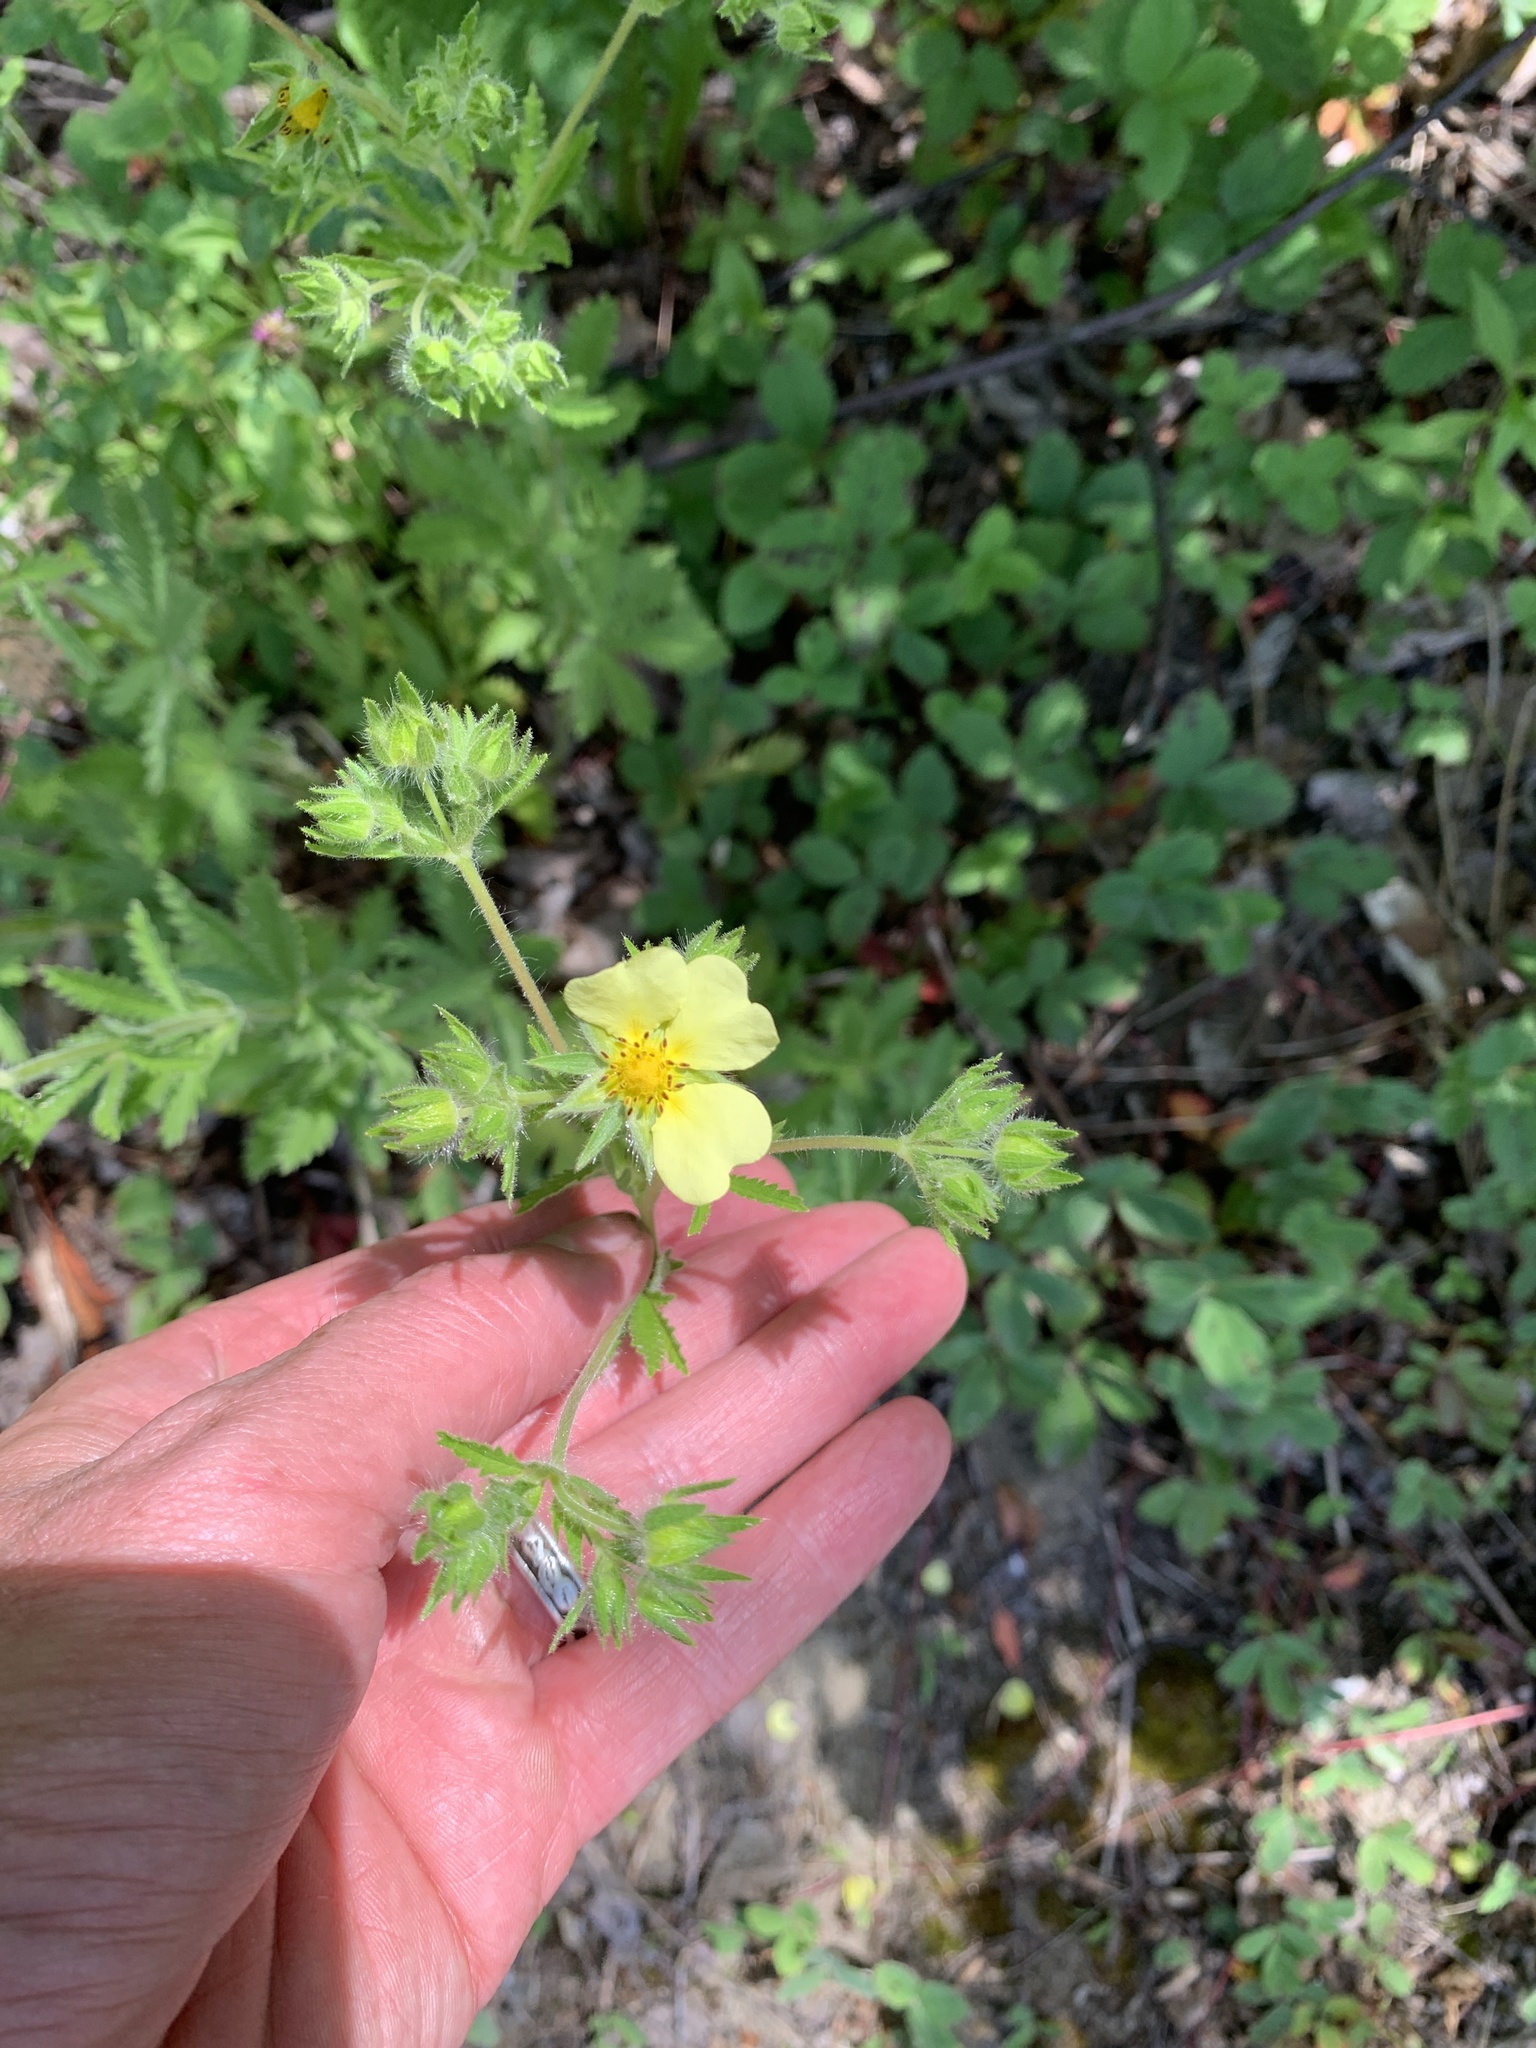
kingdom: Plantae
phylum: Tracheophyta
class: Magnoliopsida
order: Rosales
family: Rosaceae
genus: Potentilla
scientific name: Potentilla recta
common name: Sulphur cinquefoil
